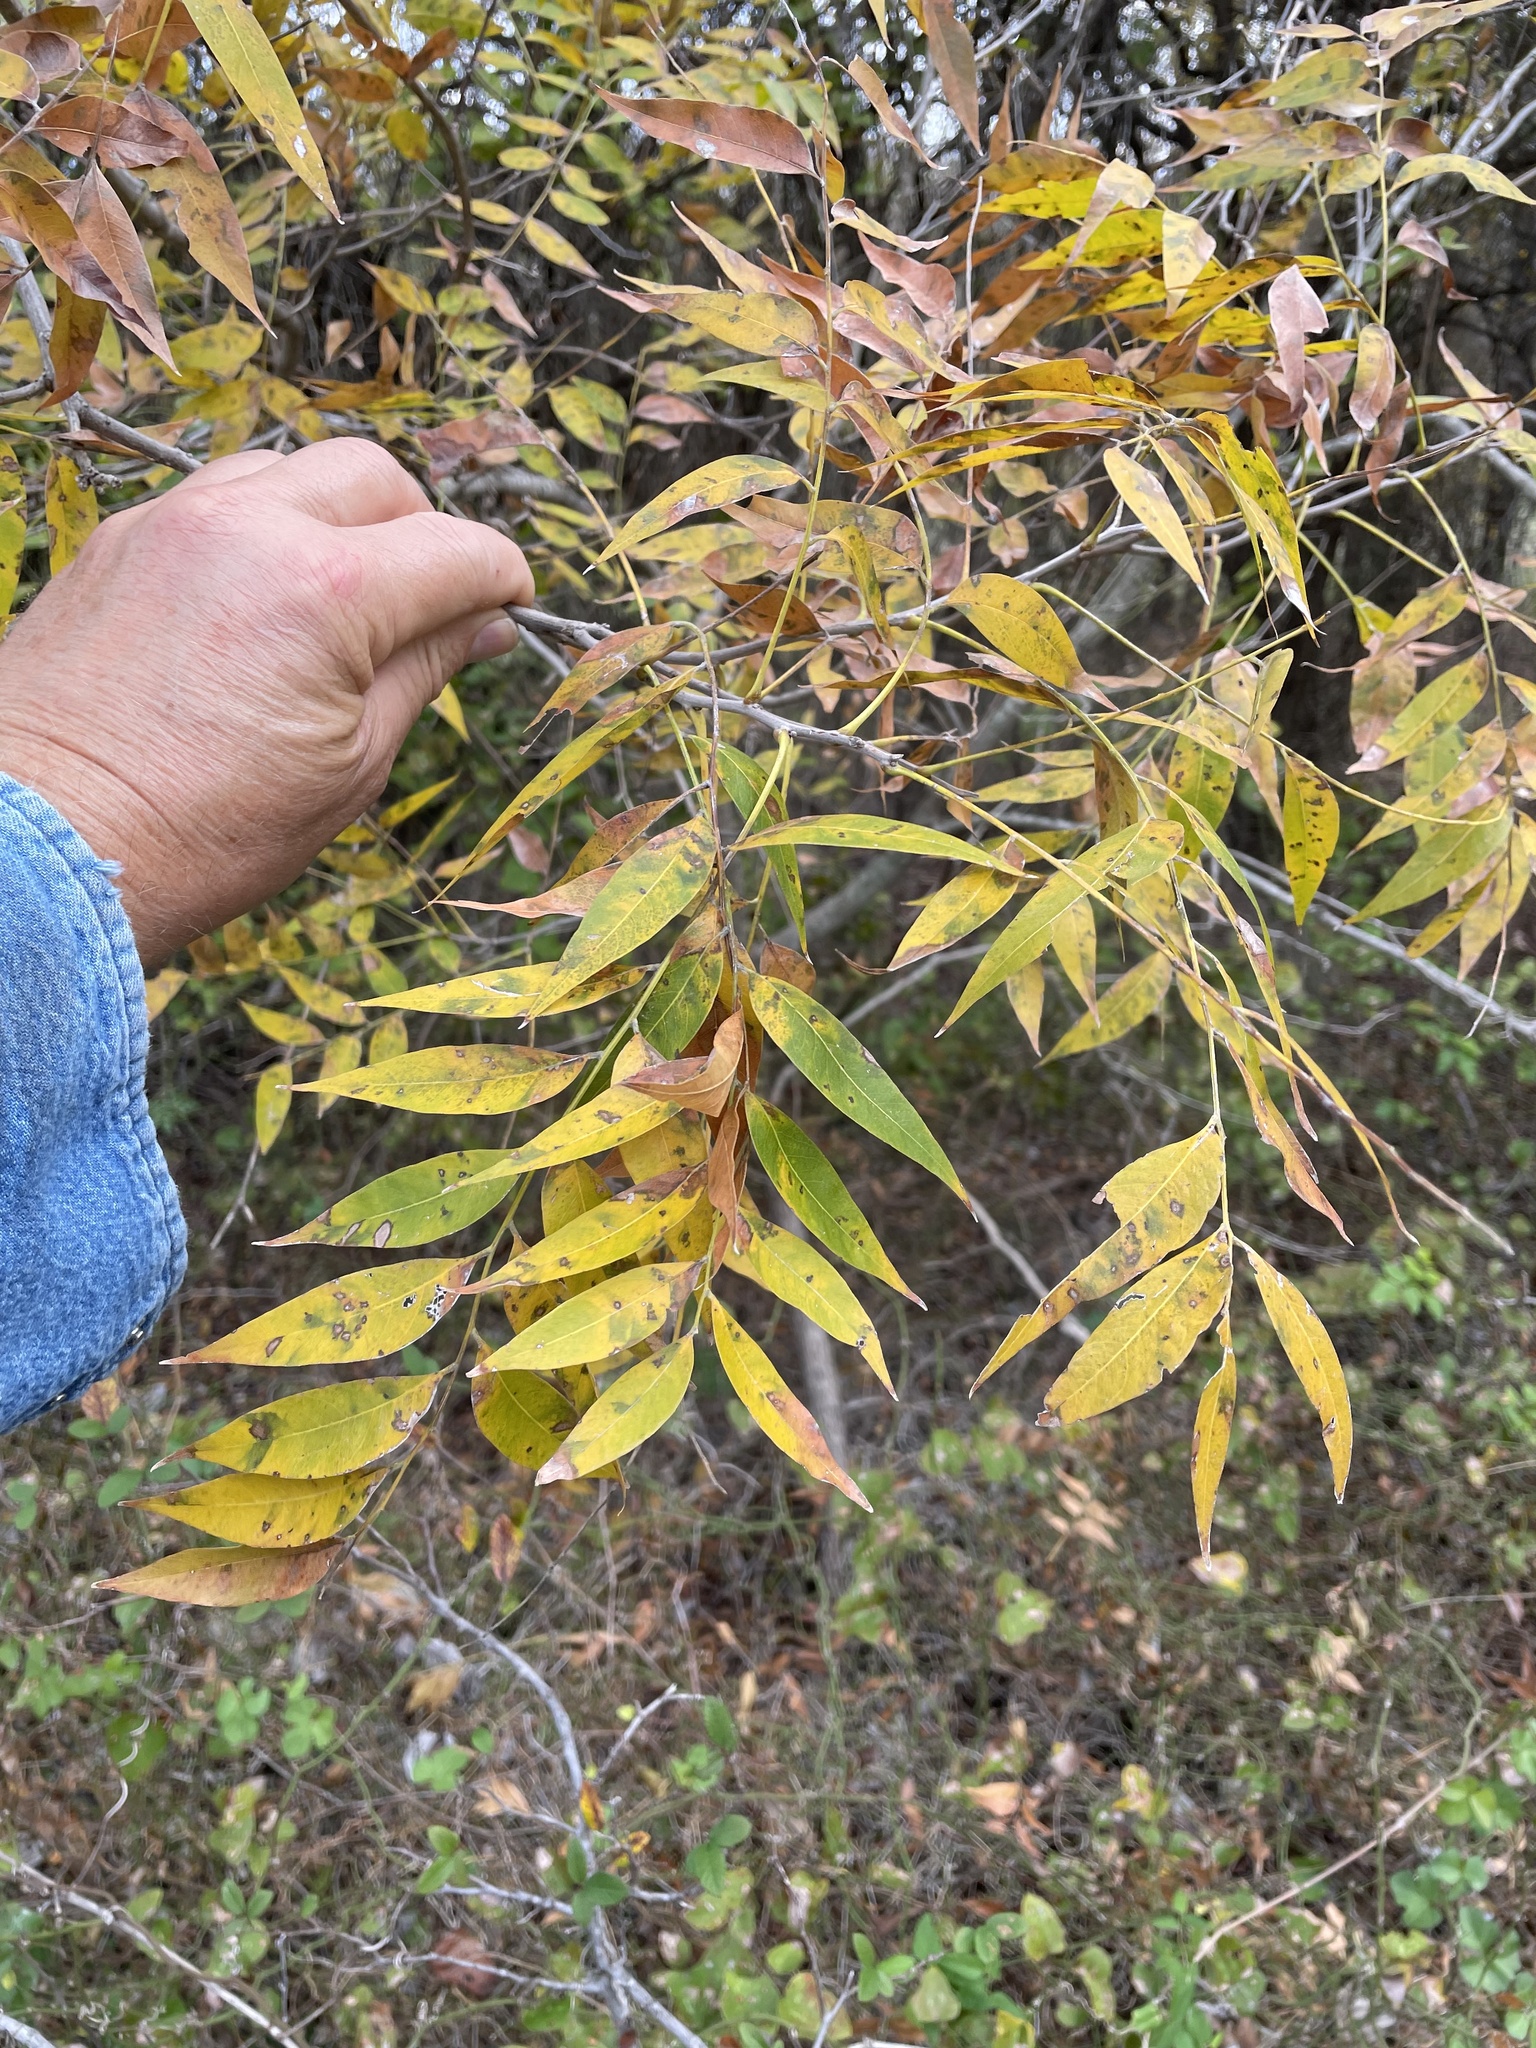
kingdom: Plantae
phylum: Tracheophyta
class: Magnoliopsida
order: Sapindales
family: Sapindaceae
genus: Sapindus
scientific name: Sapindus drummondii
